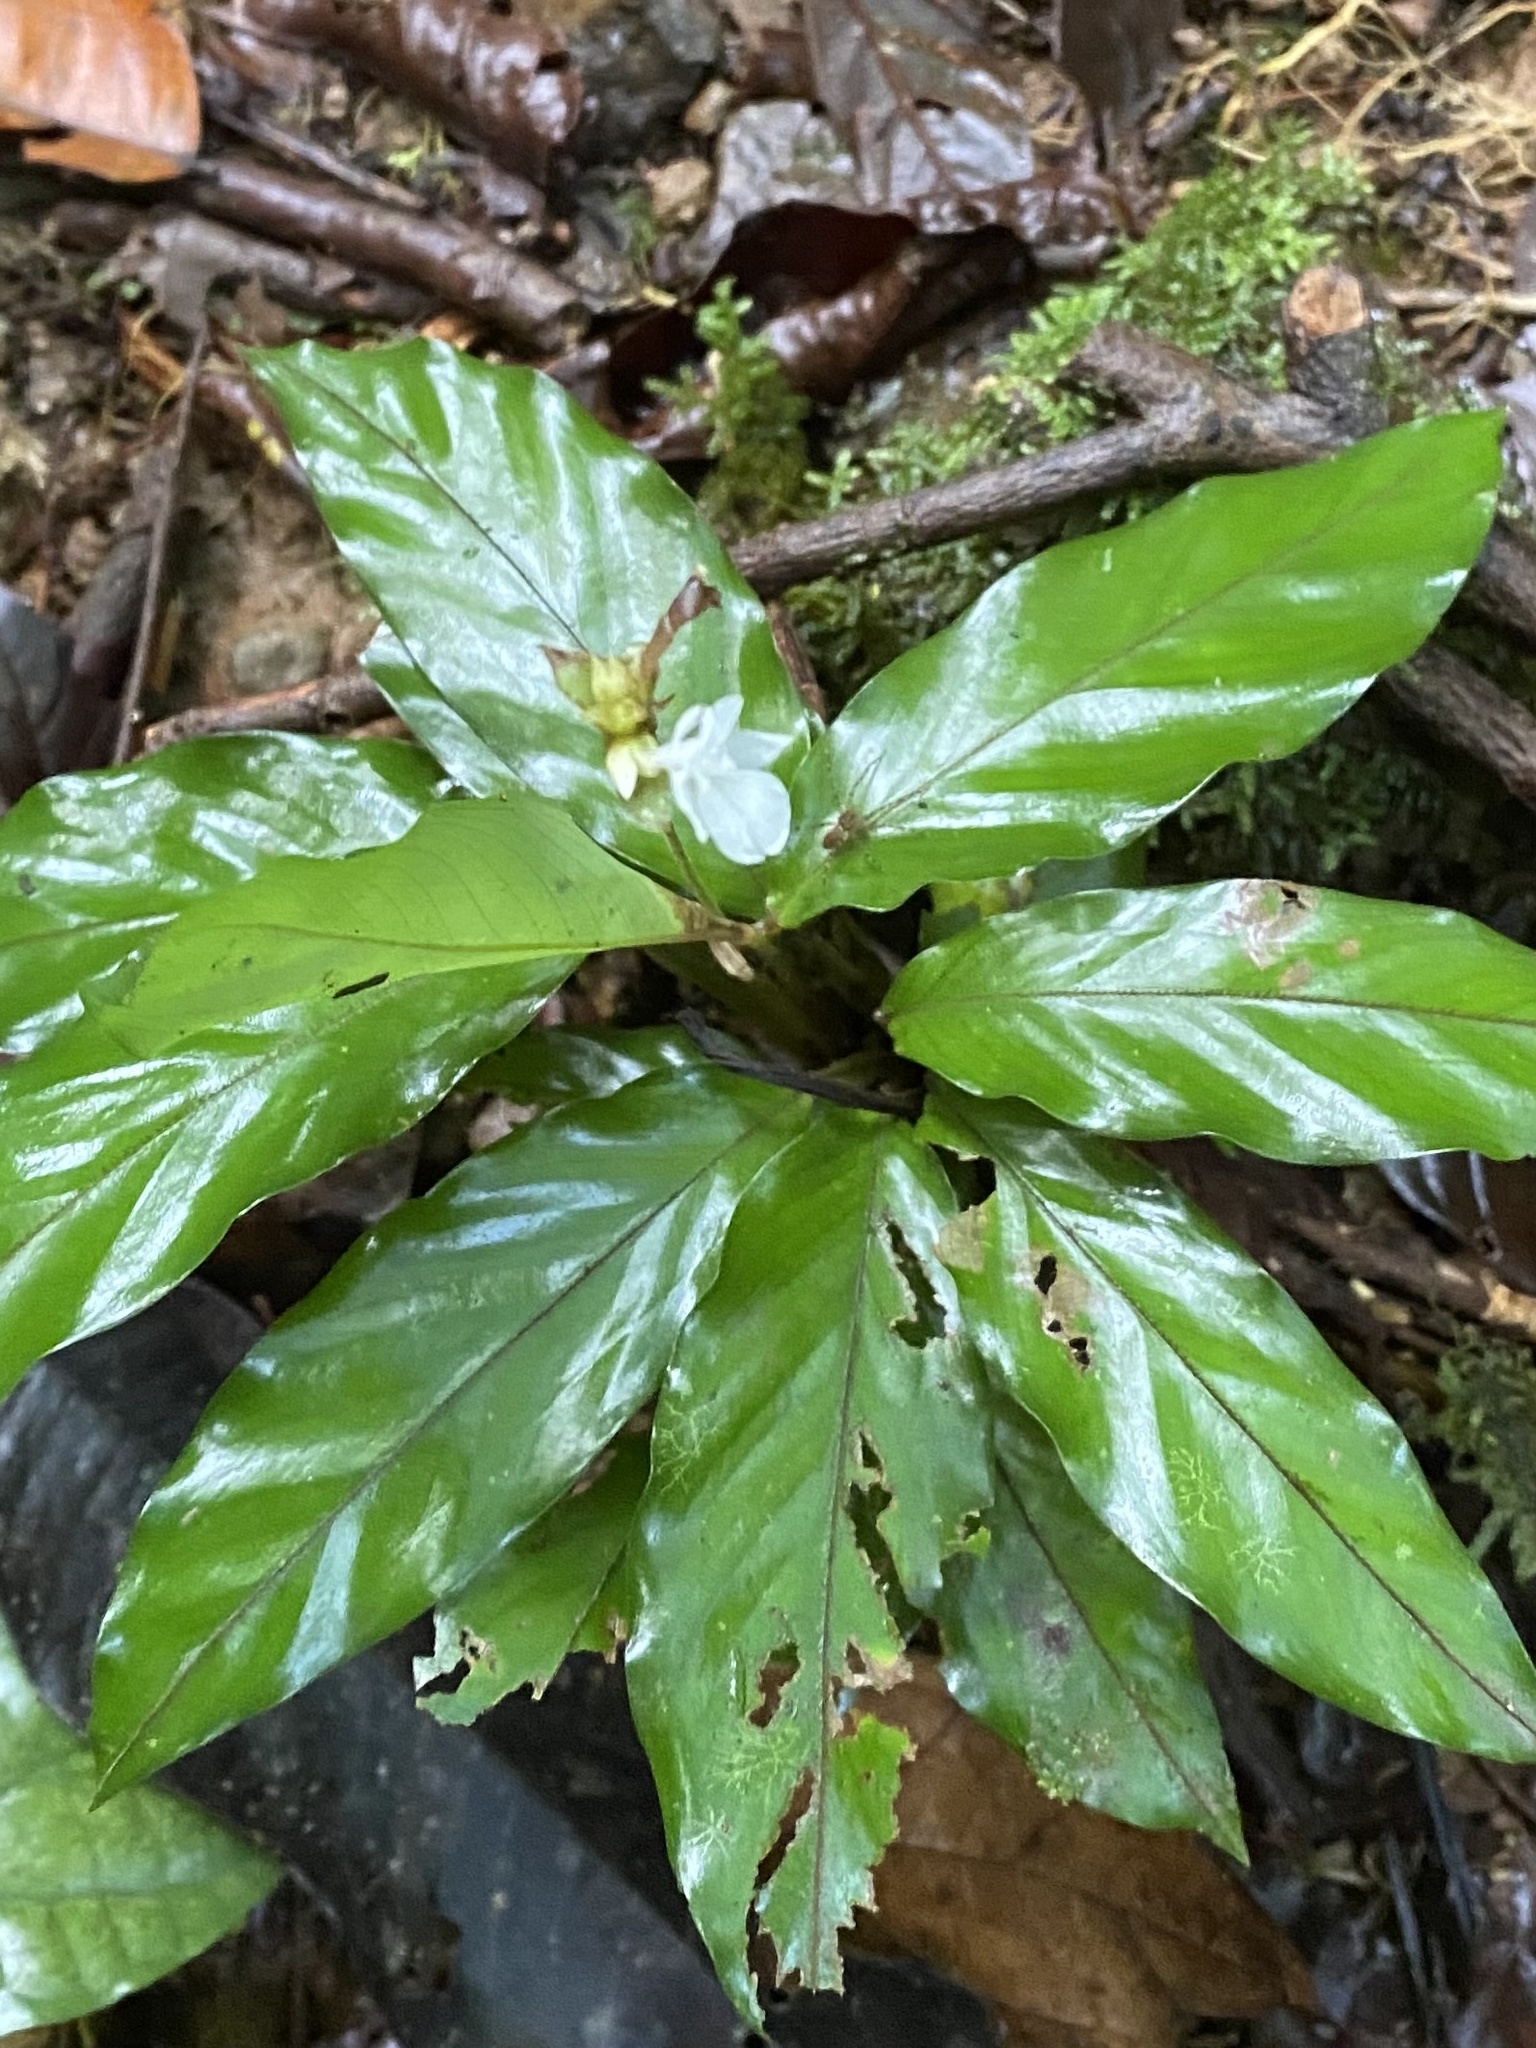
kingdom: Plantae
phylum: Tracheophyta
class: Liliopsida
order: Zingiberales
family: Marantaceae
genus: Goeppertia
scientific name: Goeppertia micans
